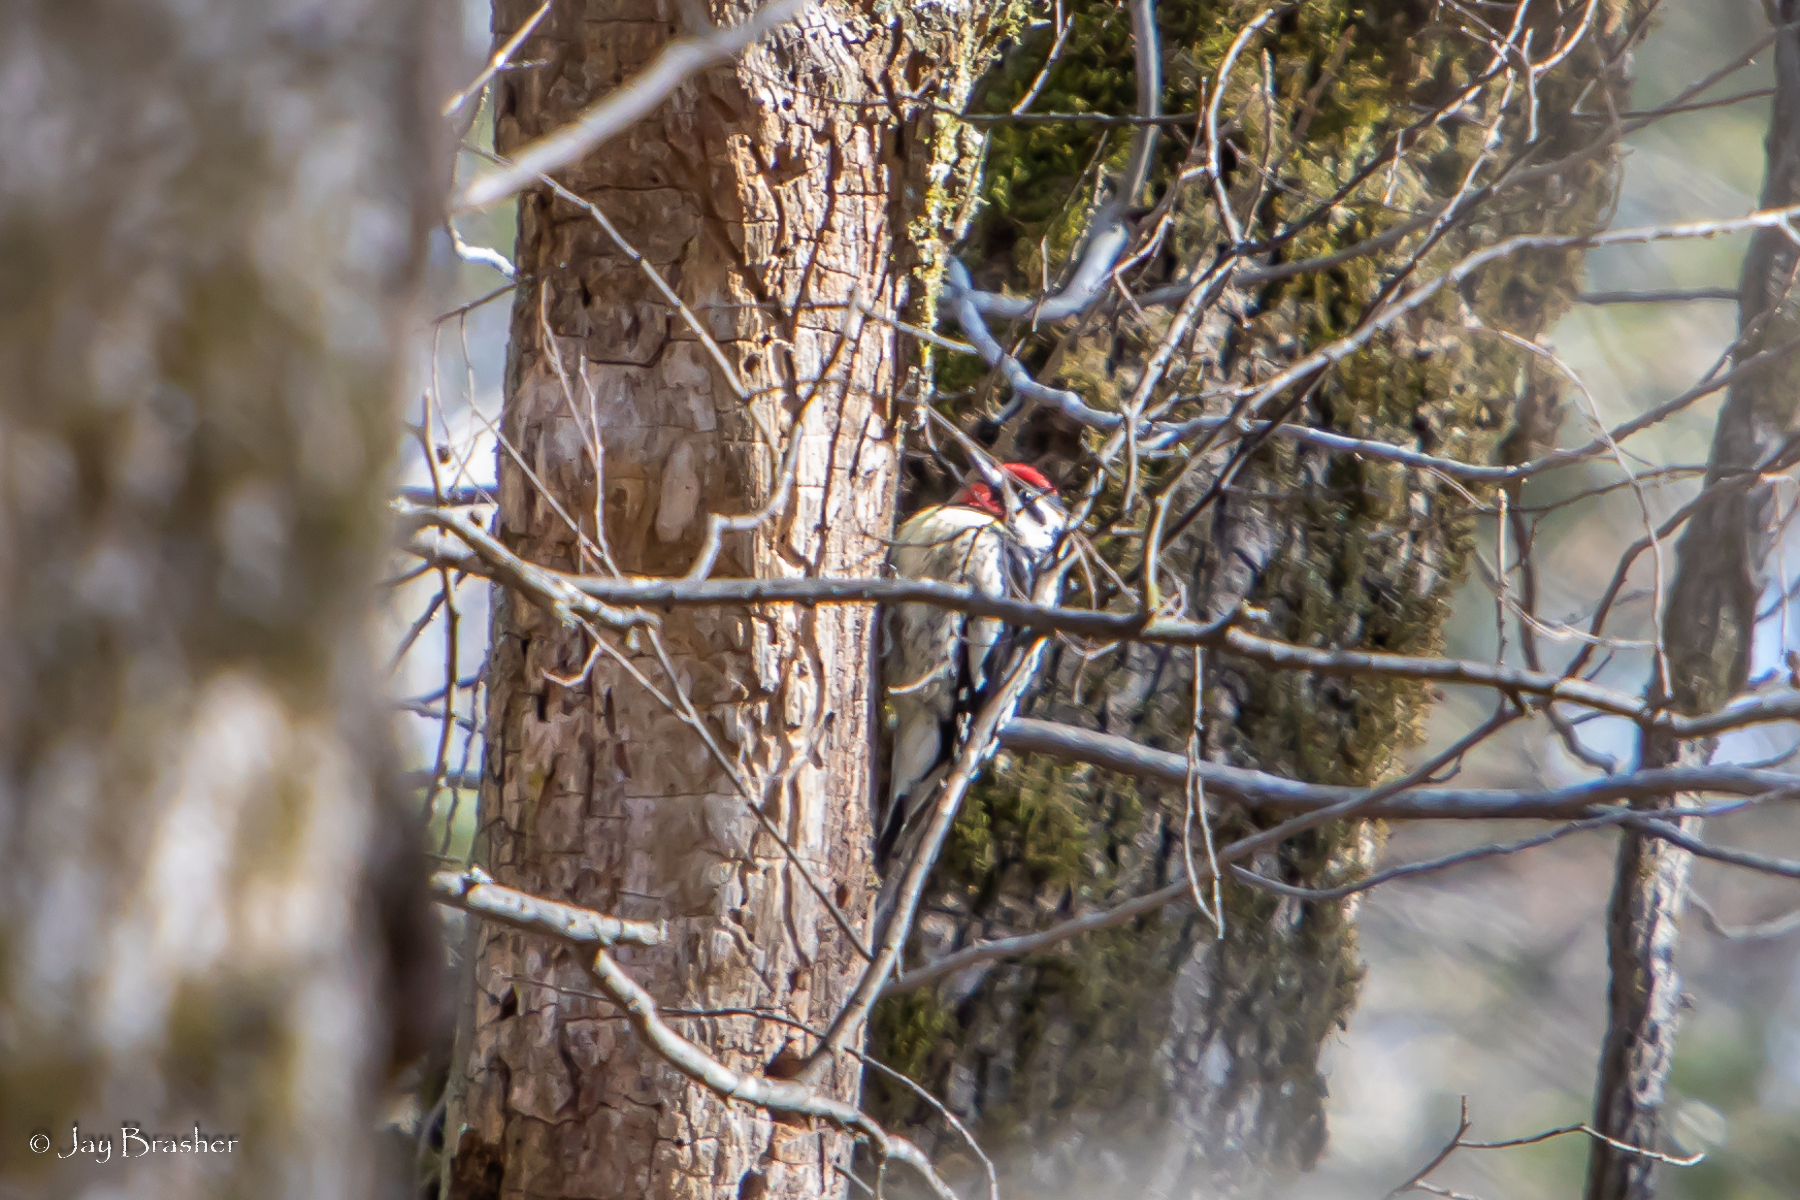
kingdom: Animalia
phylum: Chordata
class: Aves
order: Piciformes
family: Picidae
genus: Sphyrapicus
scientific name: Sphyrapicus varius
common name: Yellow-bellied sapsucker
